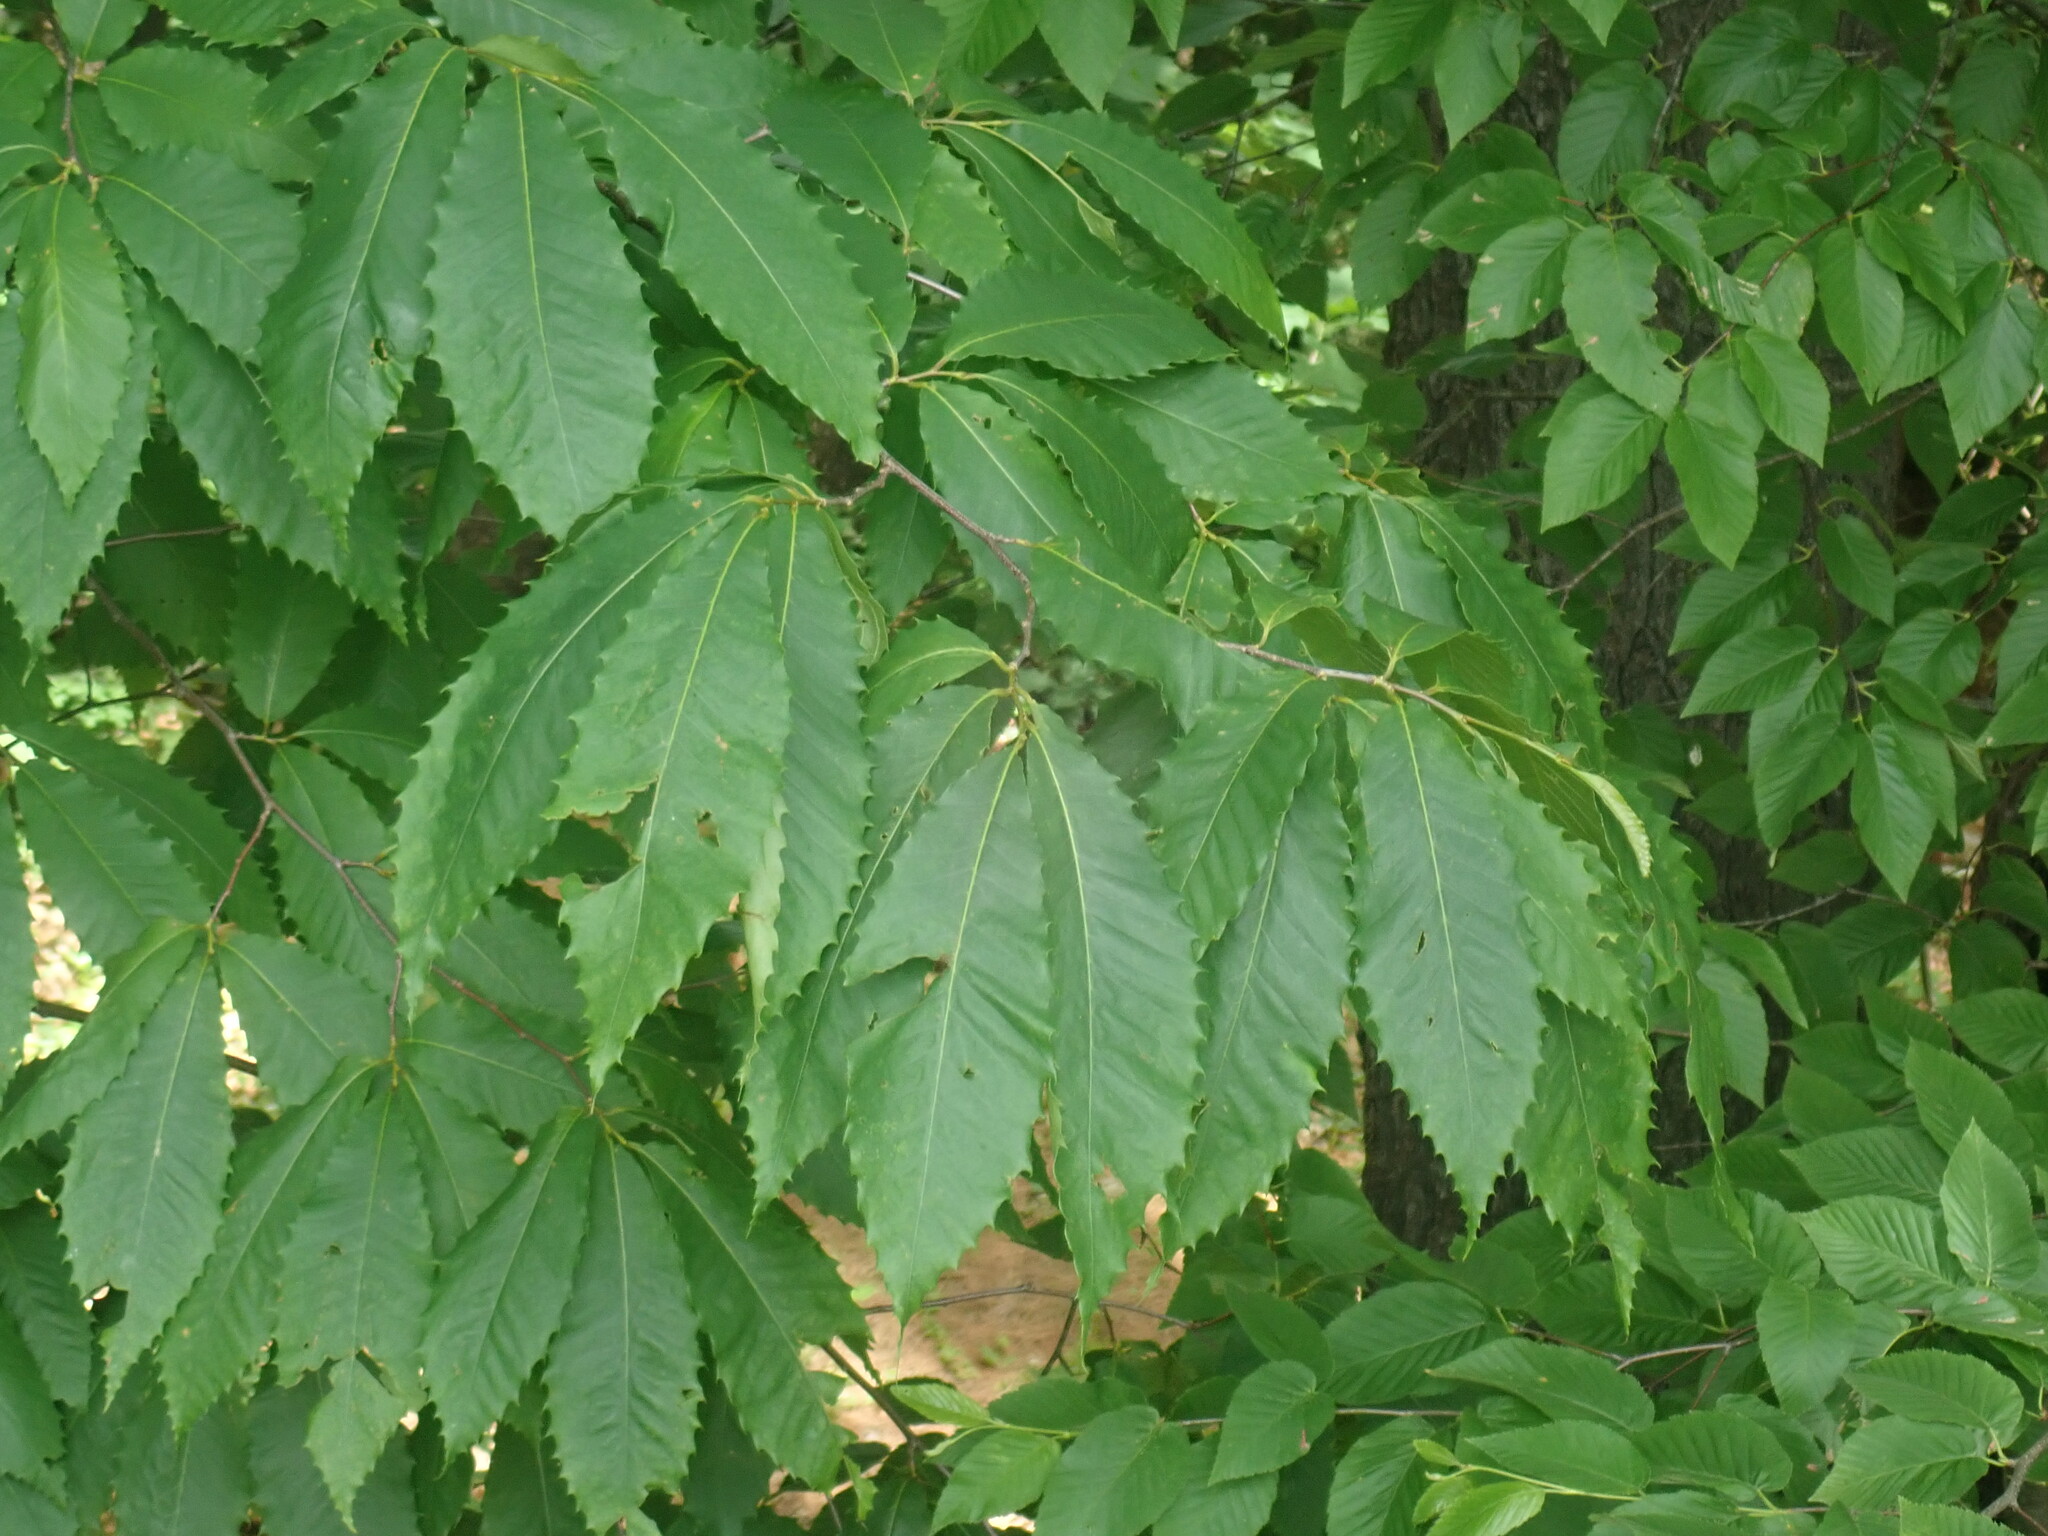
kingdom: Plantae
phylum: Tracheophyta
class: Magnoliopsida
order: Fagales
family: Fagaceae
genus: Castanea
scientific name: Castanea dentata
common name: American chestnut
